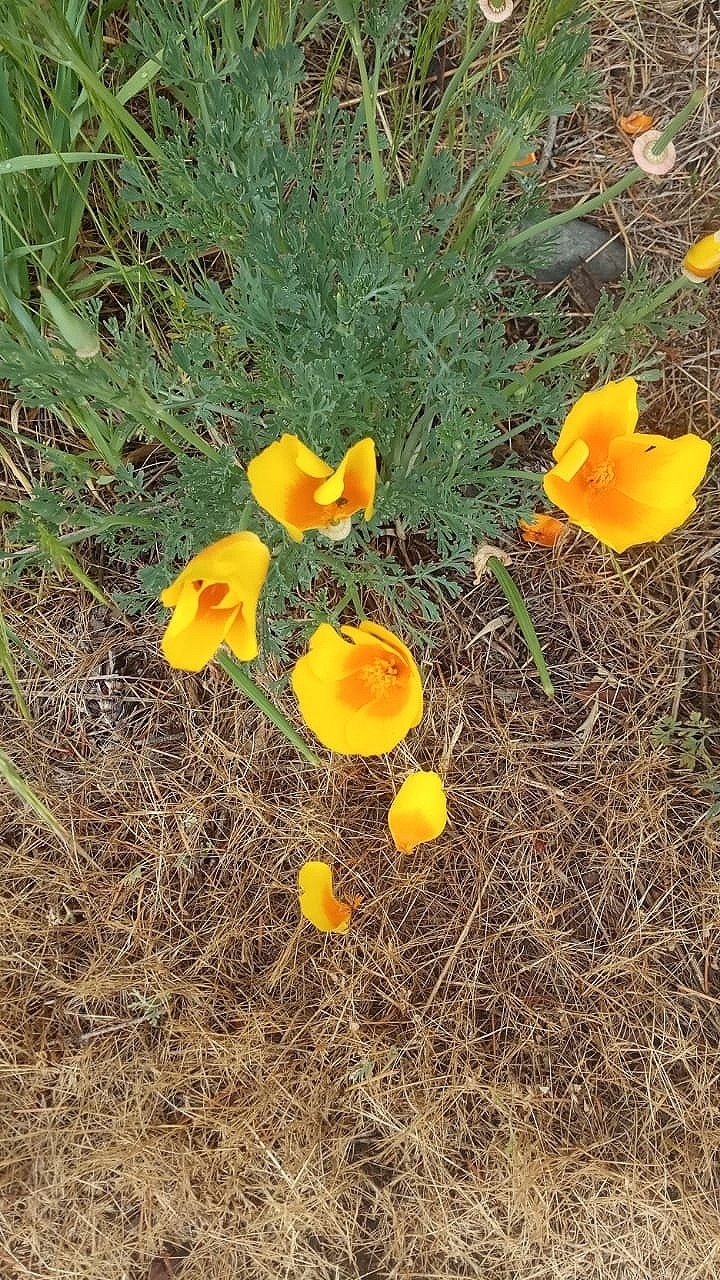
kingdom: Plantae
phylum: Tracheophyta
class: Magnoliopsida
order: Ranunculales
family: Papaveraceae
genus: Eschscholzia
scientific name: Eschscholzia californica
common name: California poppy
